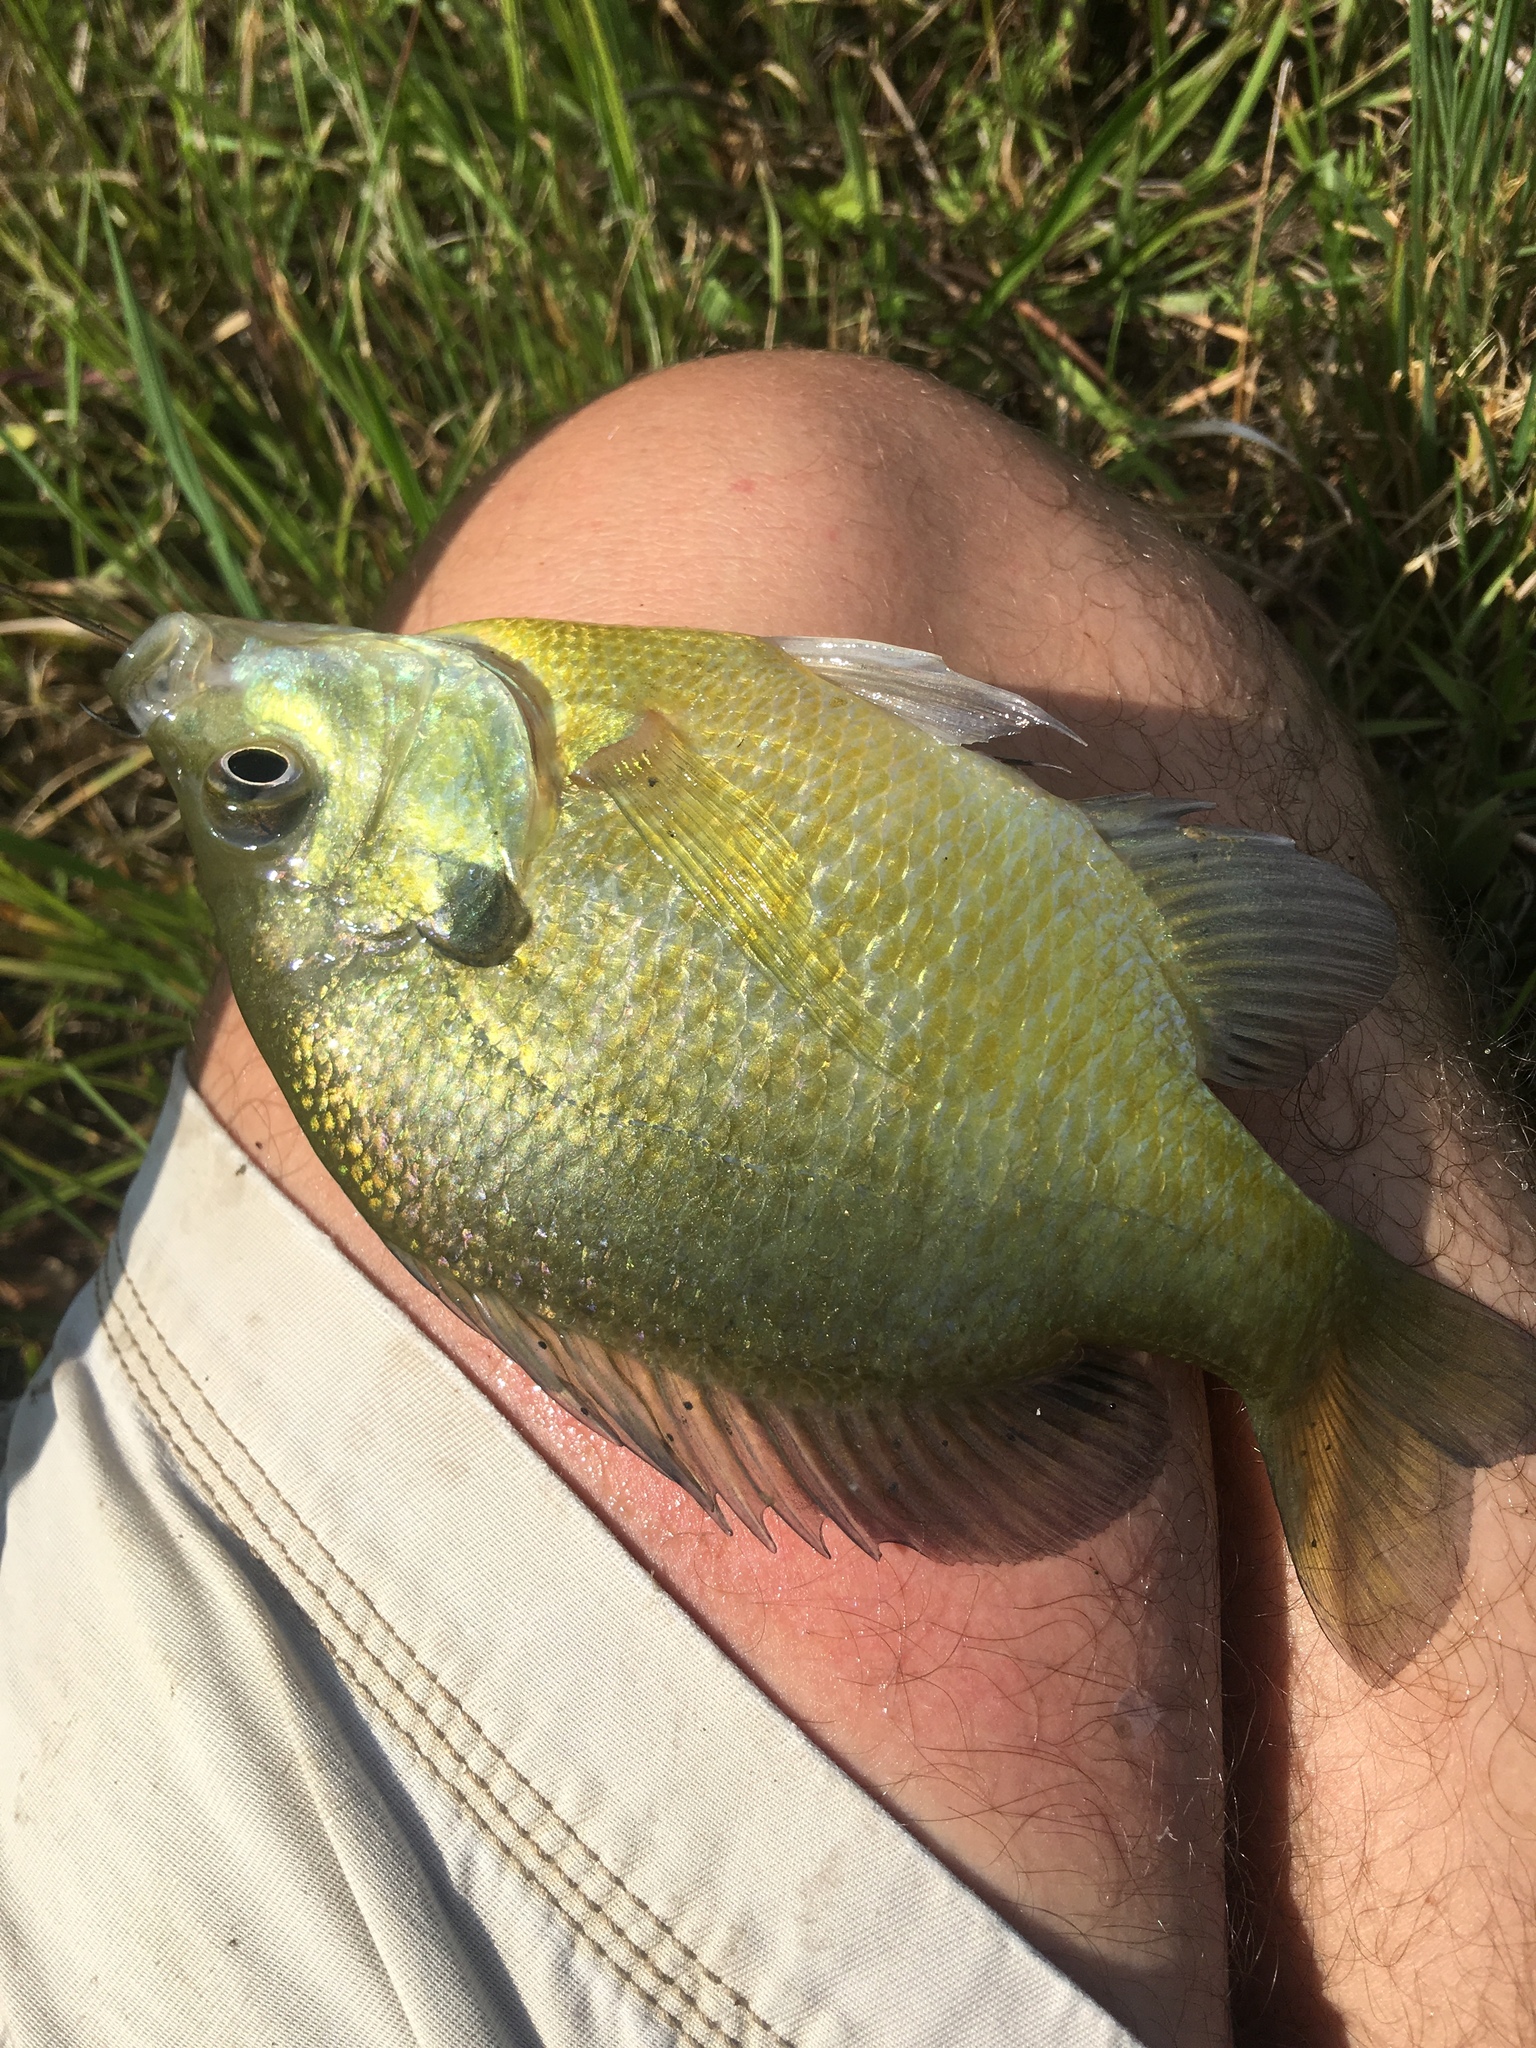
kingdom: Animalia
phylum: Chordata
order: Perciformes
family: Centrarchidae
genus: Lepomis
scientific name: Lepomis macrochirus
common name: Bluegill
